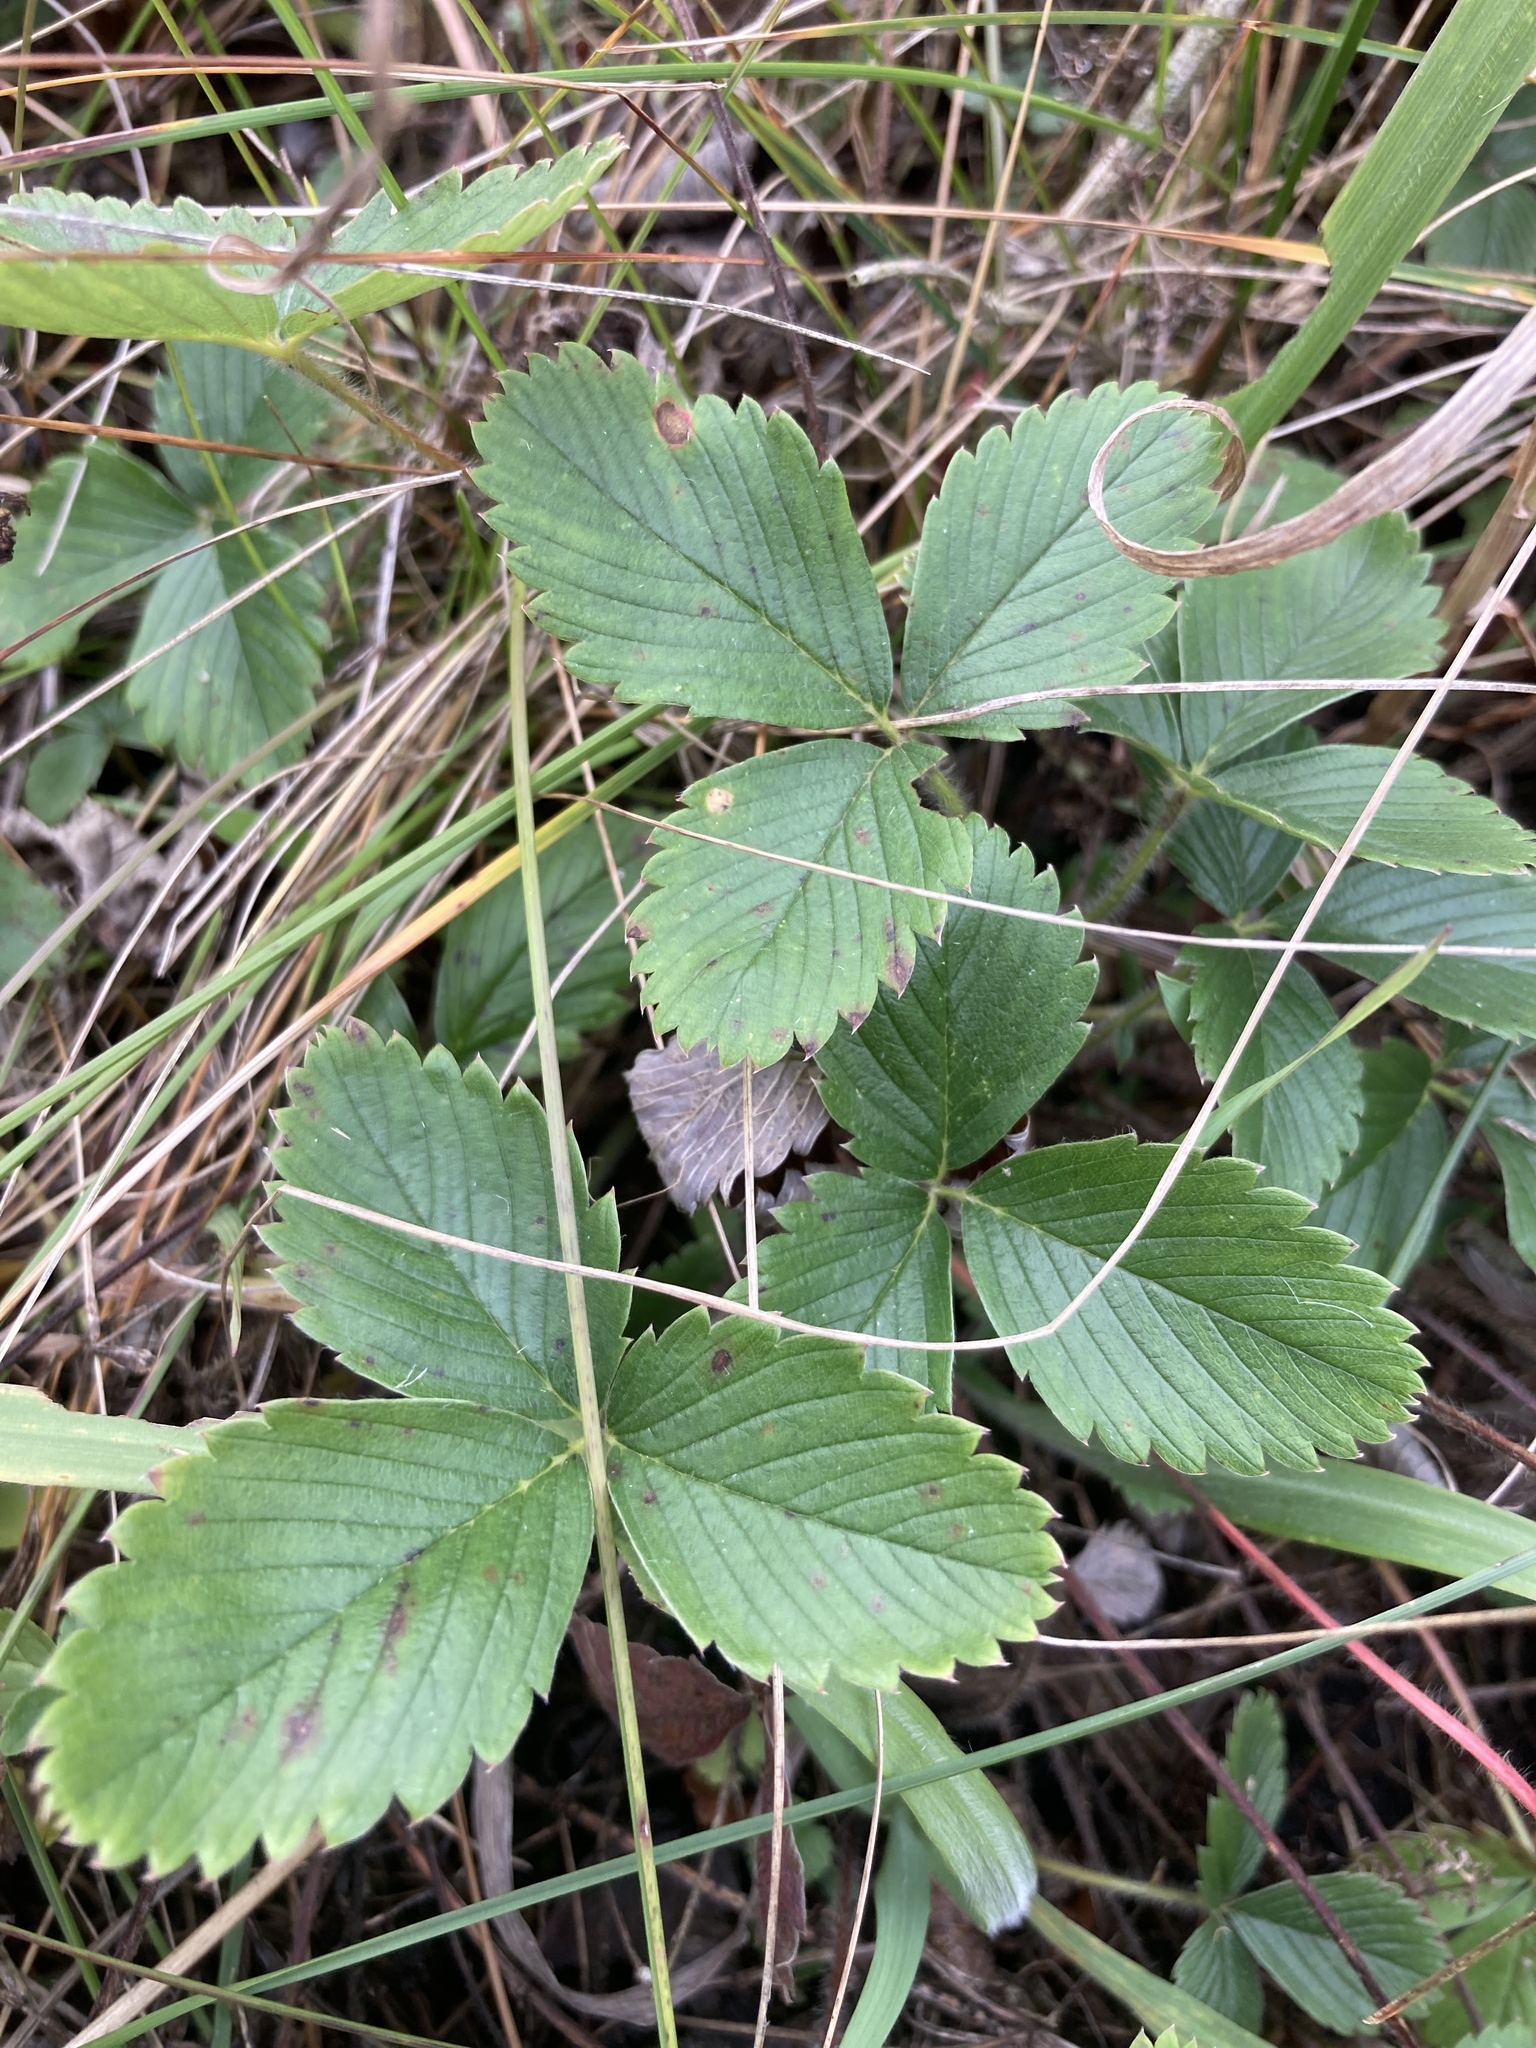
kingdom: Plantae
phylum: Tracheophyta
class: Magnoliopsida
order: Rosales
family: Rosaceae
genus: Fragaria
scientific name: Fragaria viridis
